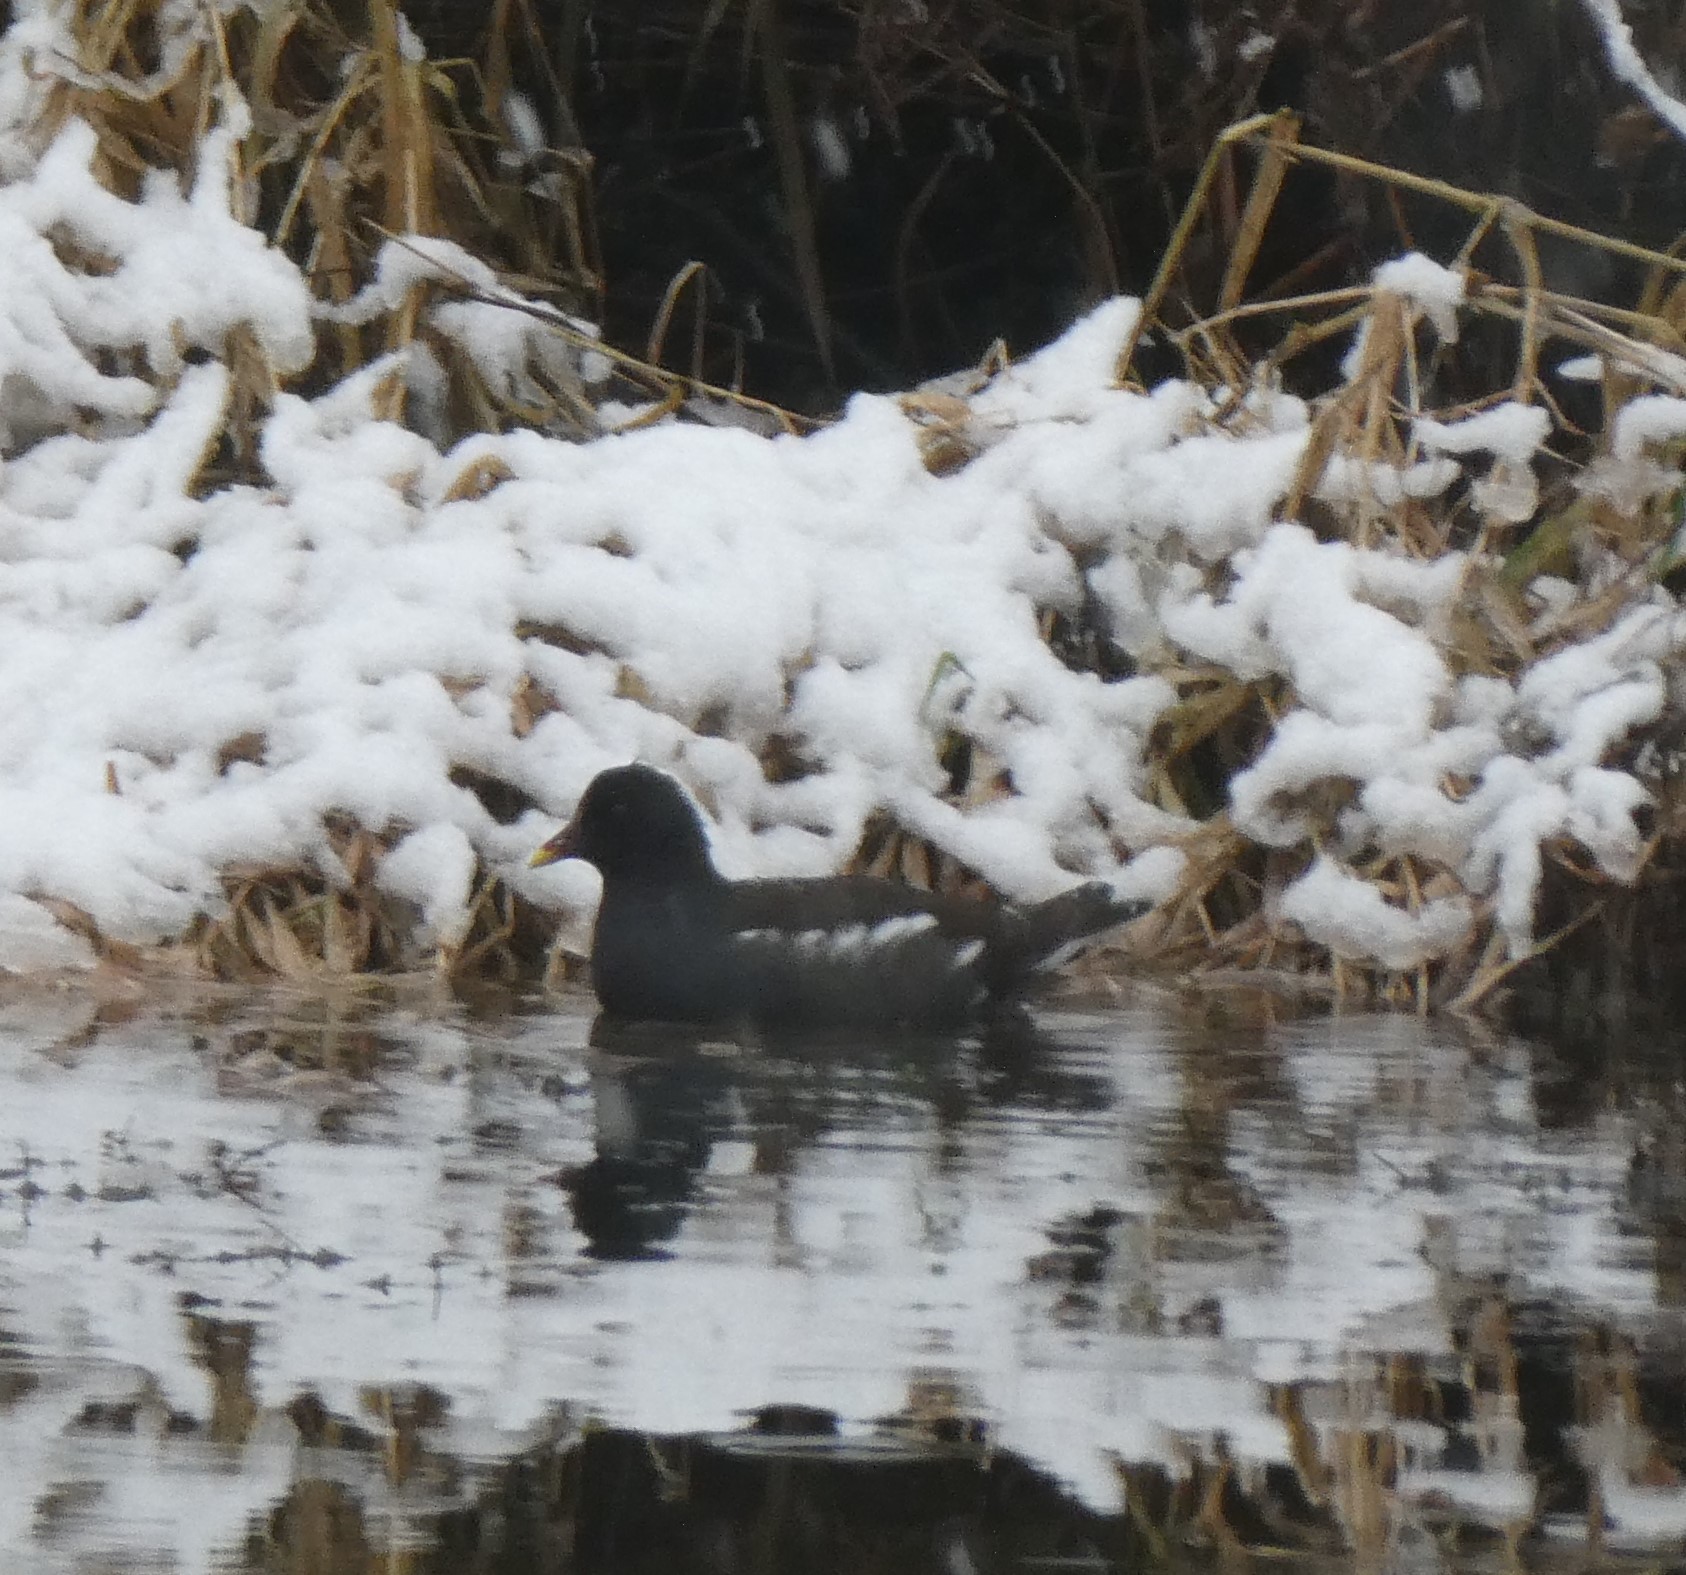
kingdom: Animalia
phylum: Chordata
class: Aves
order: Gruiformes
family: Rallidae
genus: Gallinula
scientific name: Gallinula chloropus
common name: Common moorhen
